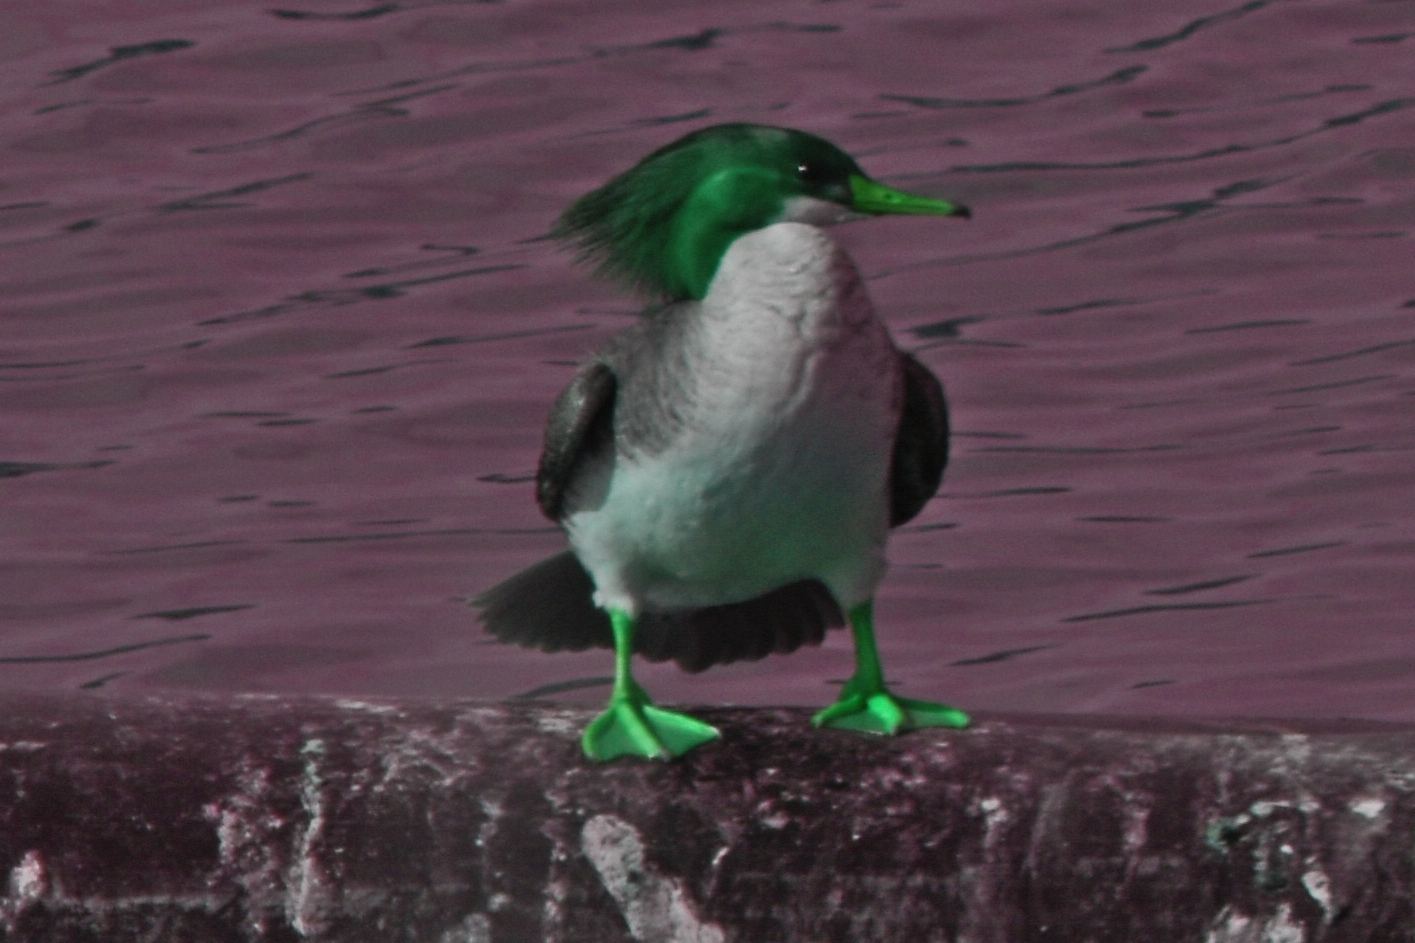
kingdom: Animalia
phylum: Chordata
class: Aves
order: Anseriformes
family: Anatidae
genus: Mergus
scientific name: Mergus merganser
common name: Common merganser
